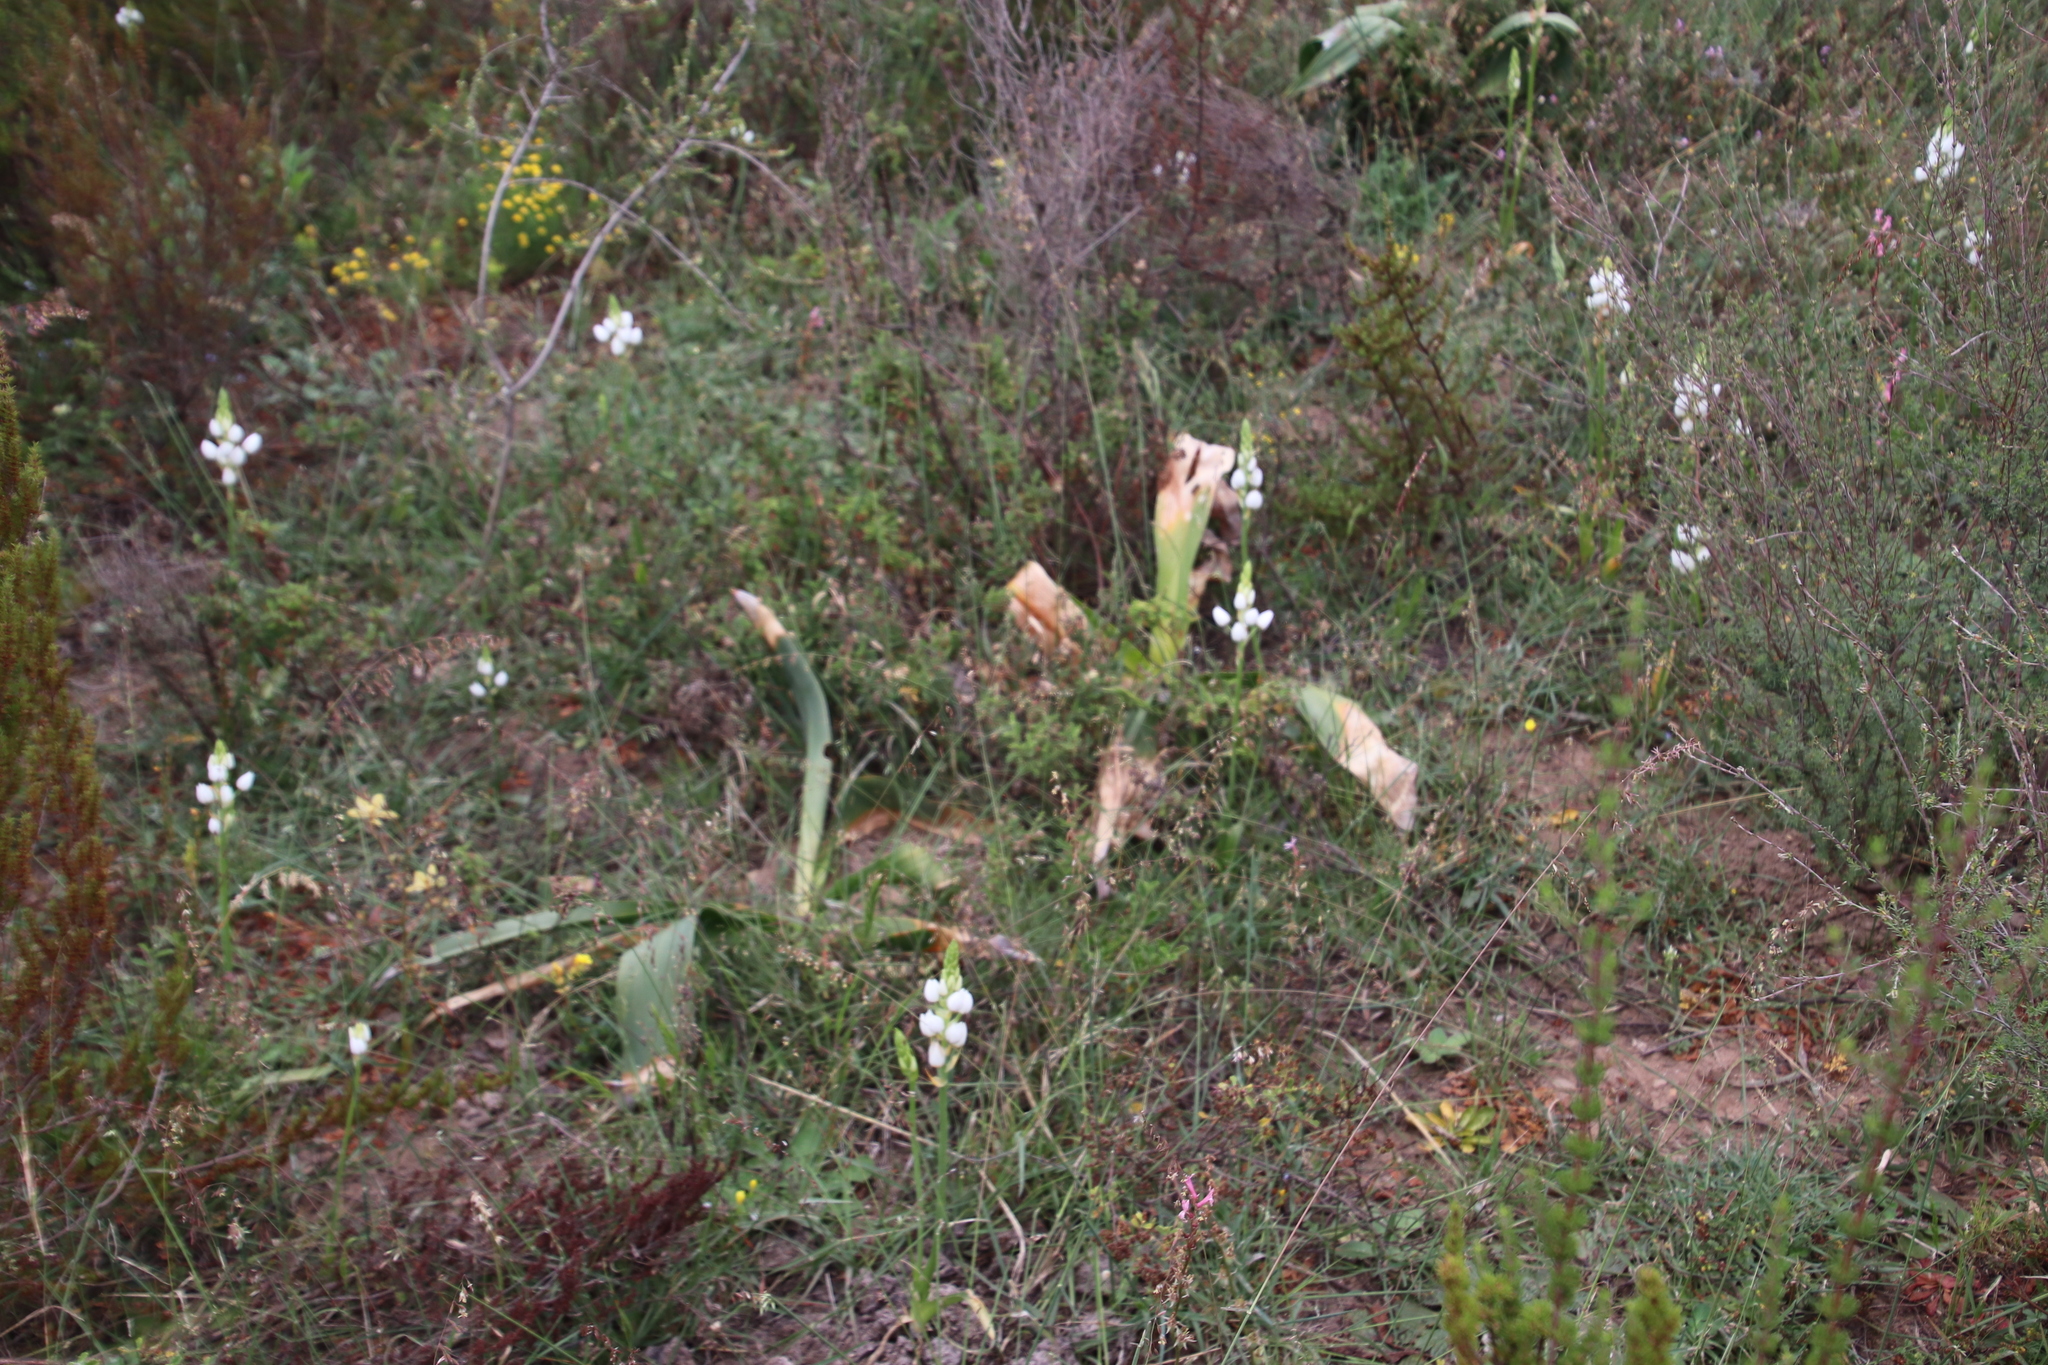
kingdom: Plantae
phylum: Tracheophyta
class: Liliopsida
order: Asparagales
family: Asparagaceae
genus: Drimia
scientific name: Drimia capensis
